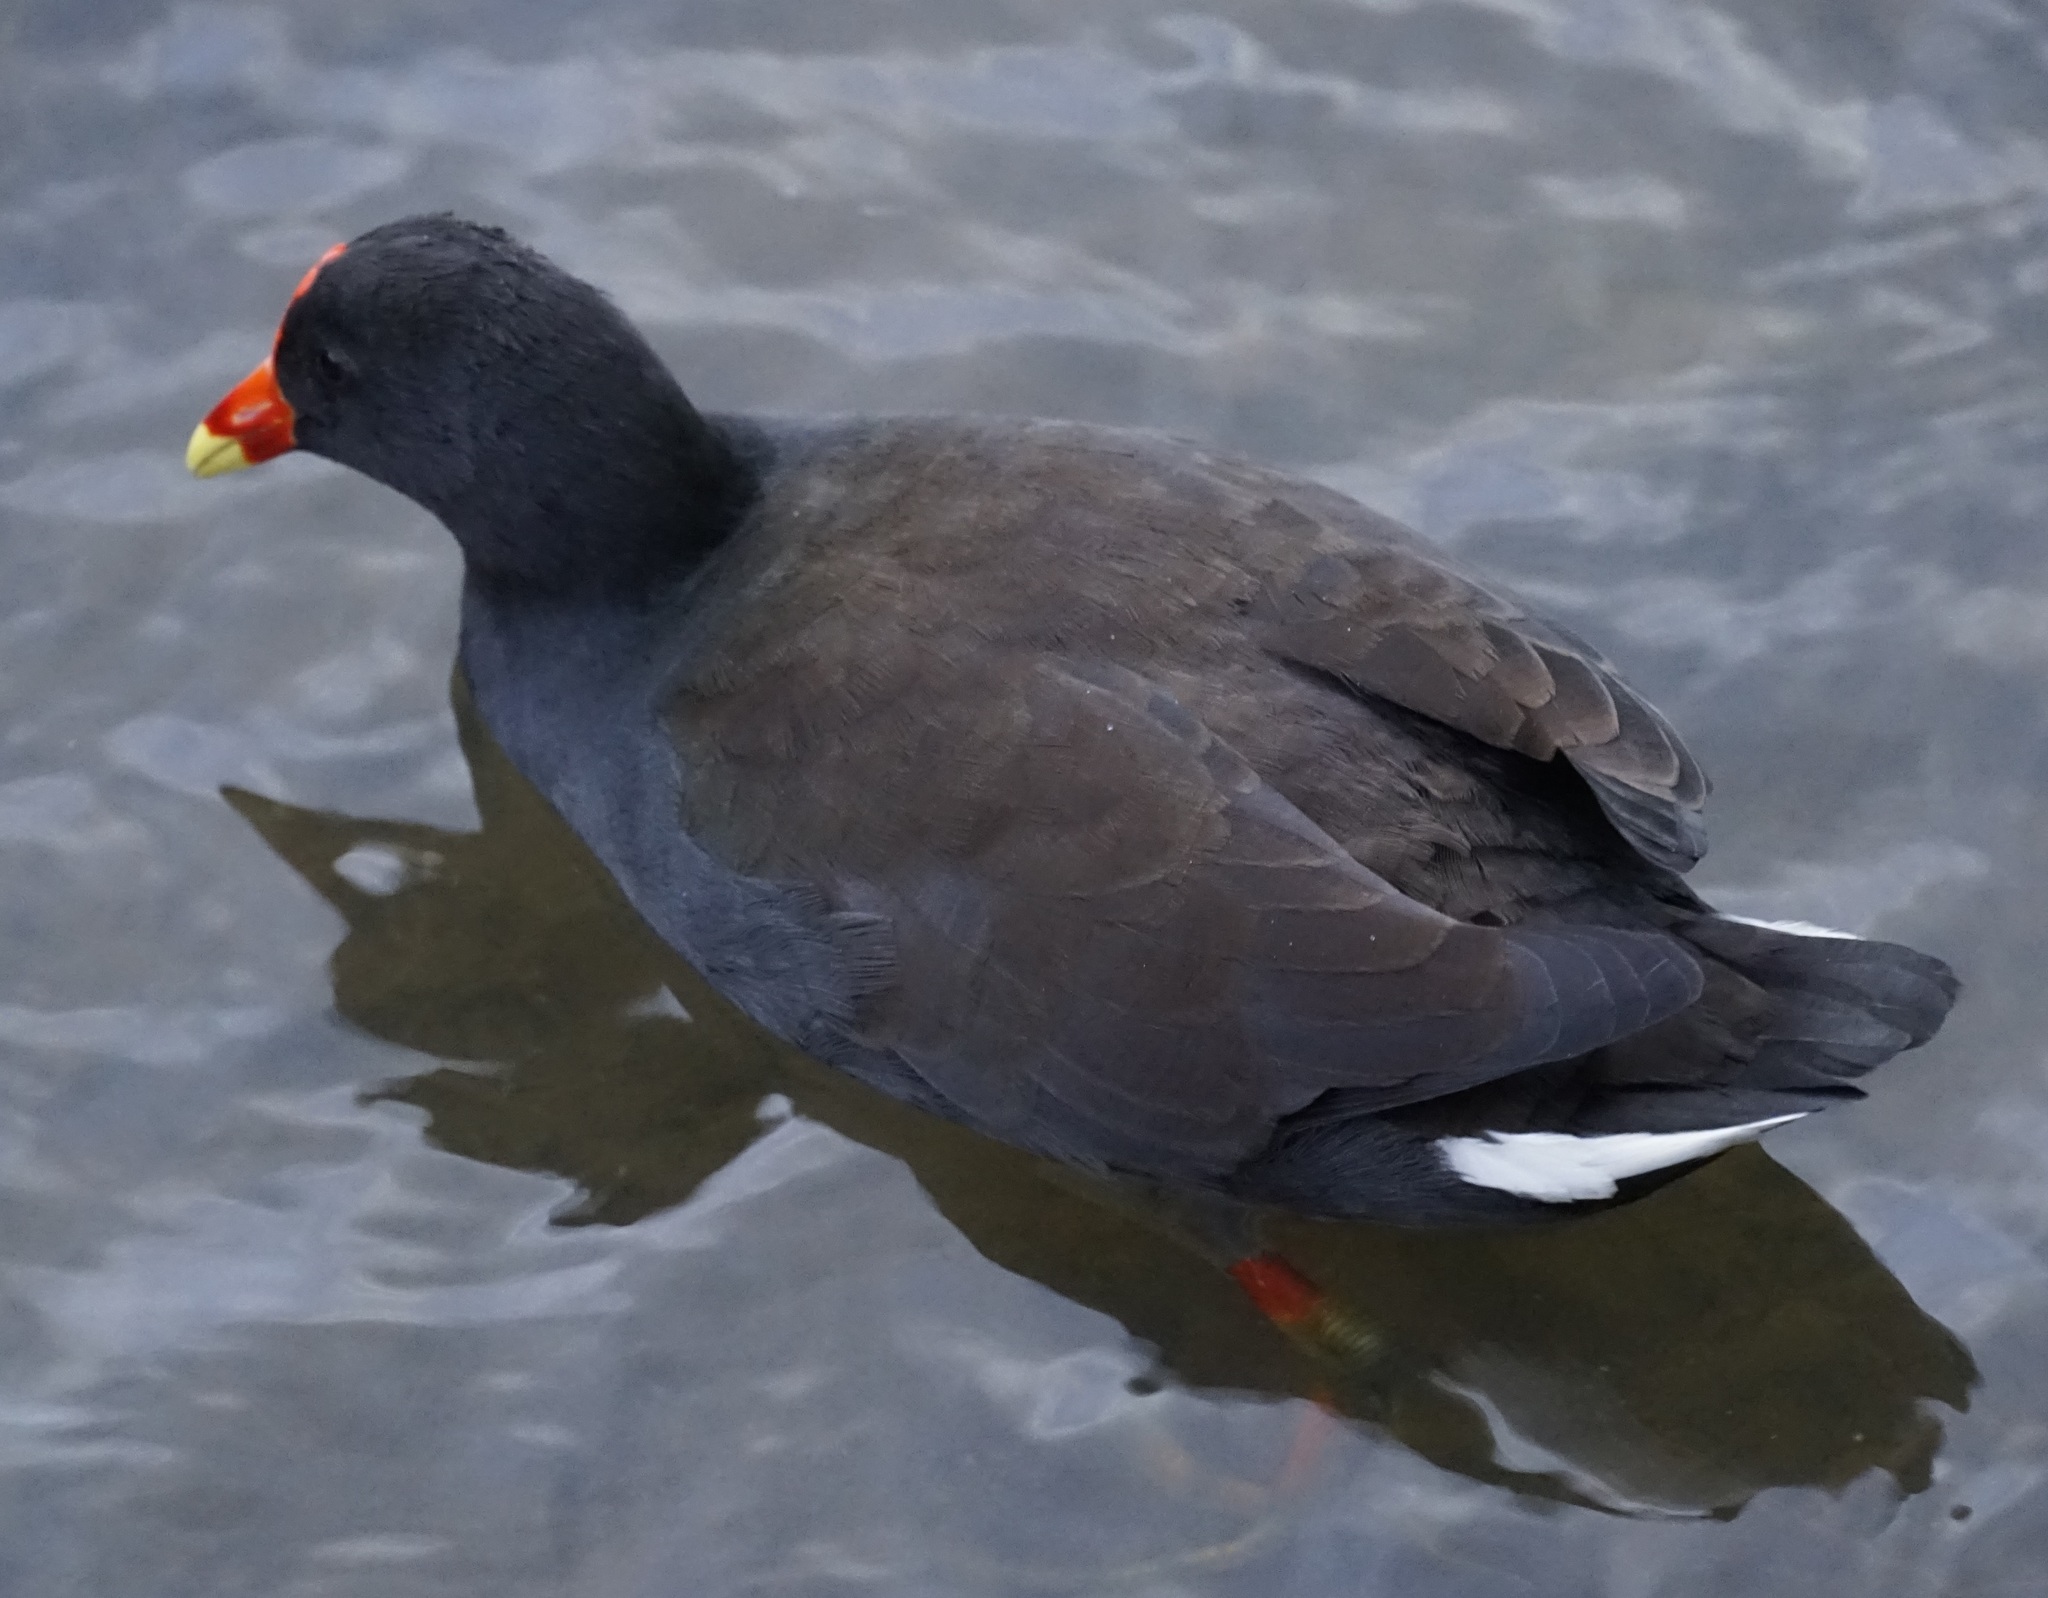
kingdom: Animalia
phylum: Chordata
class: Aves
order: Gruiformes
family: Rallidae
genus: Gallinula
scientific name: Gallinula tenebrosa
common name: Dusky moorhen
